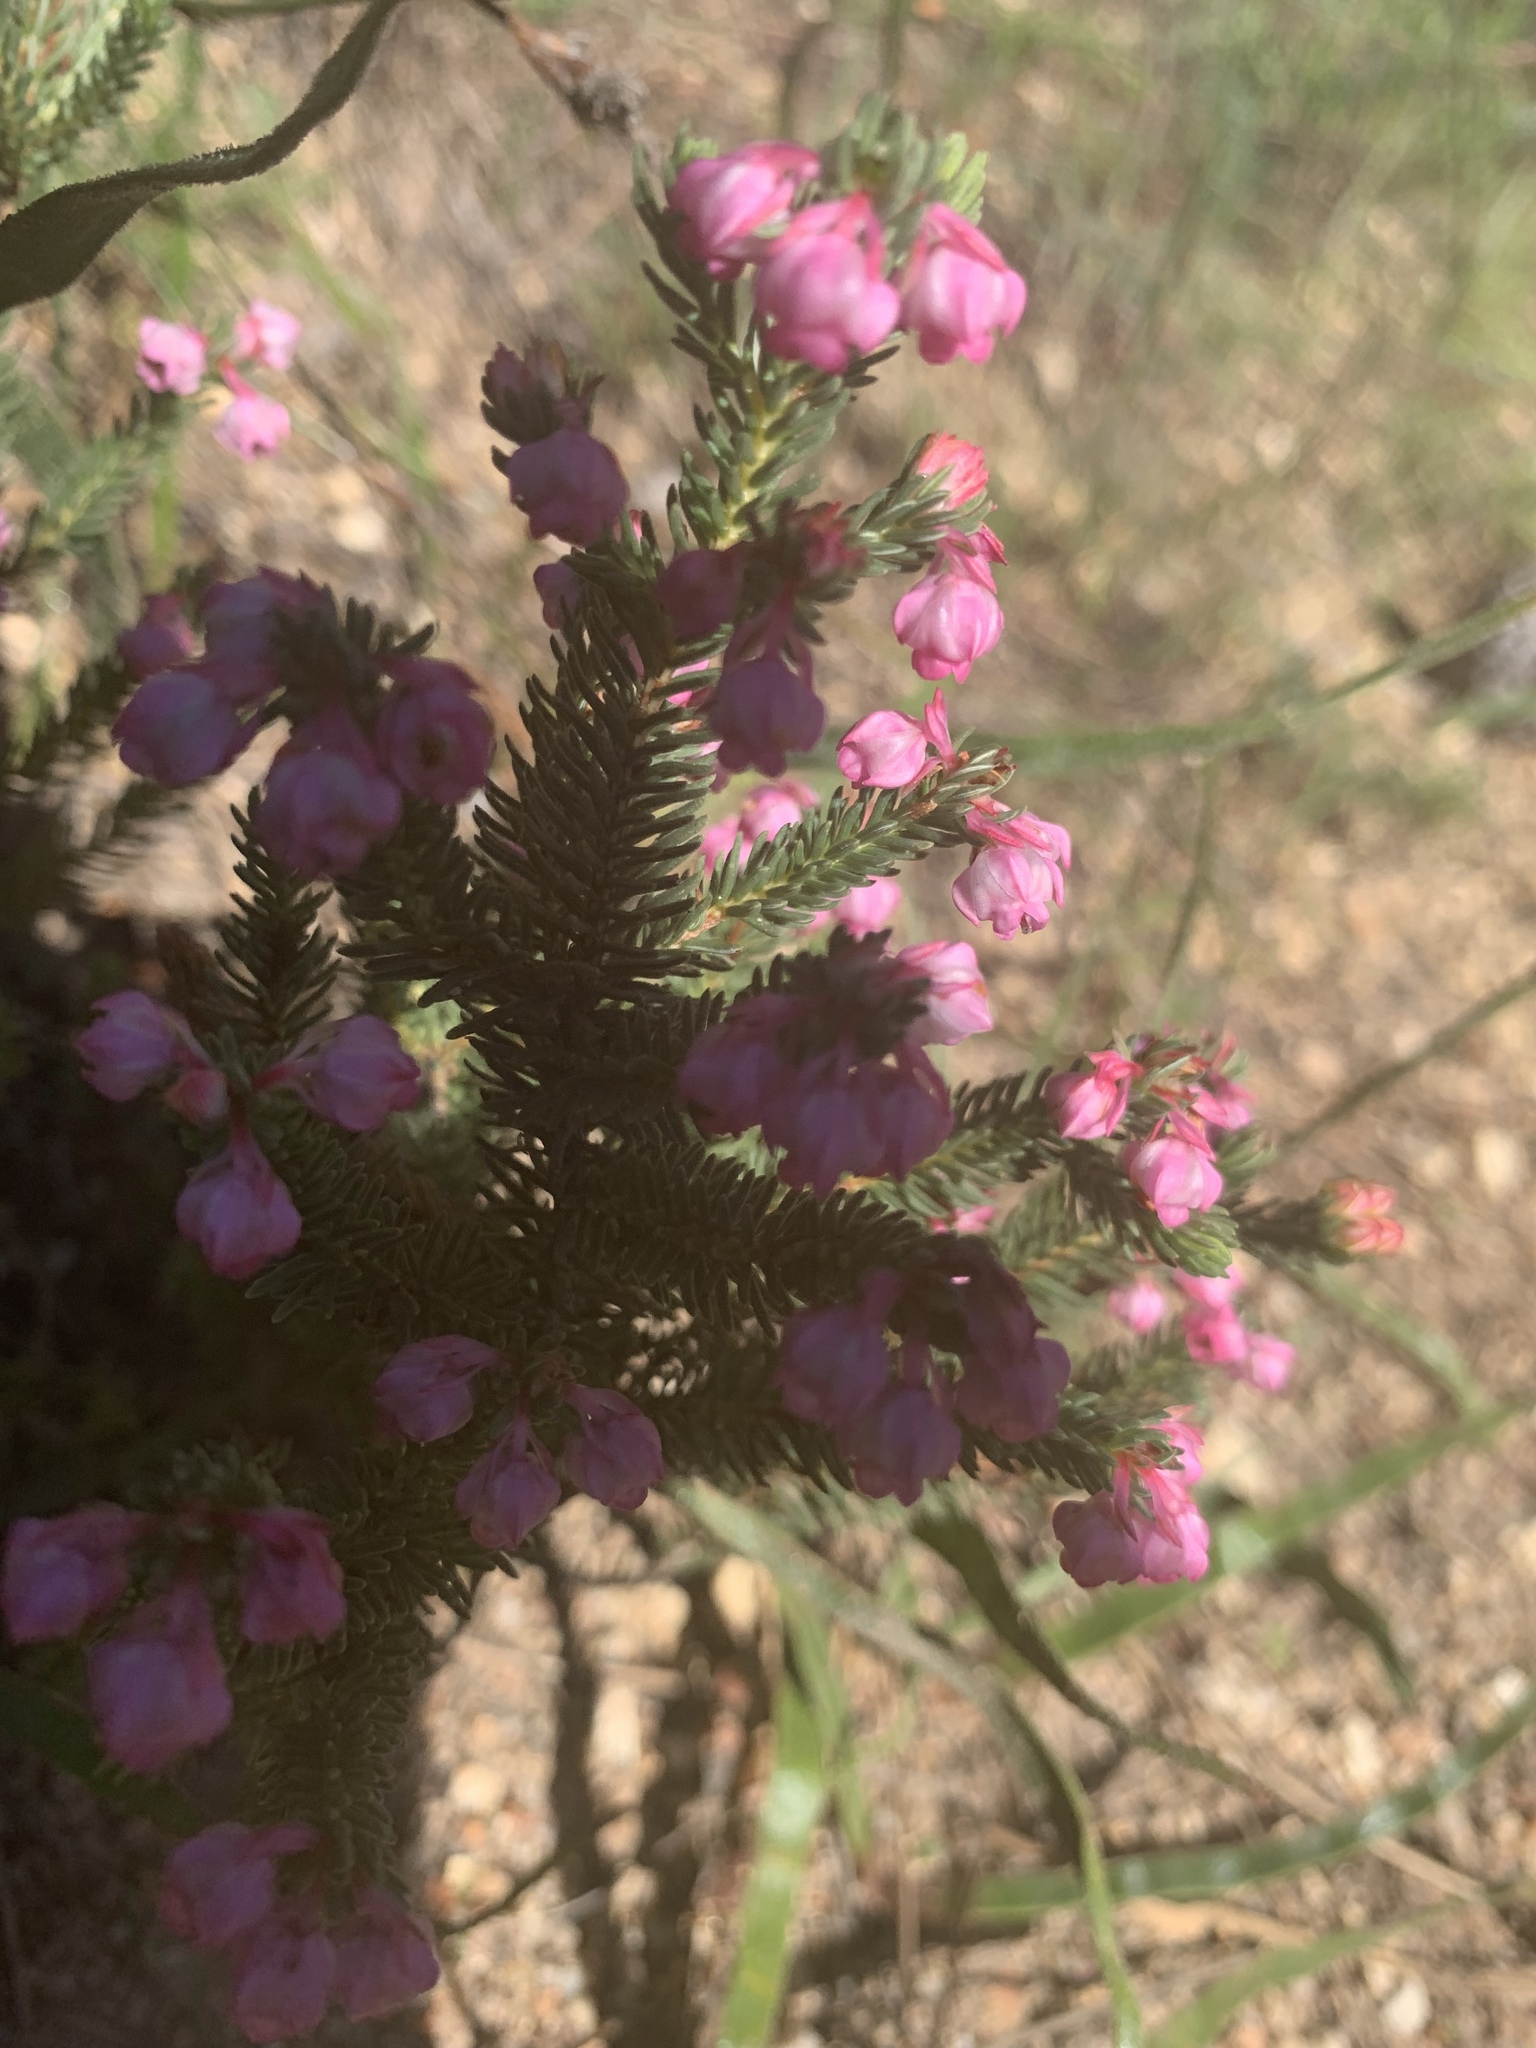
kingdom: Plantae
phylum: Tracheophyta
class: Magnoliopsida
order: Ericales
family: Ericaceae
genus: Erica
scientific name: Erica baccans
